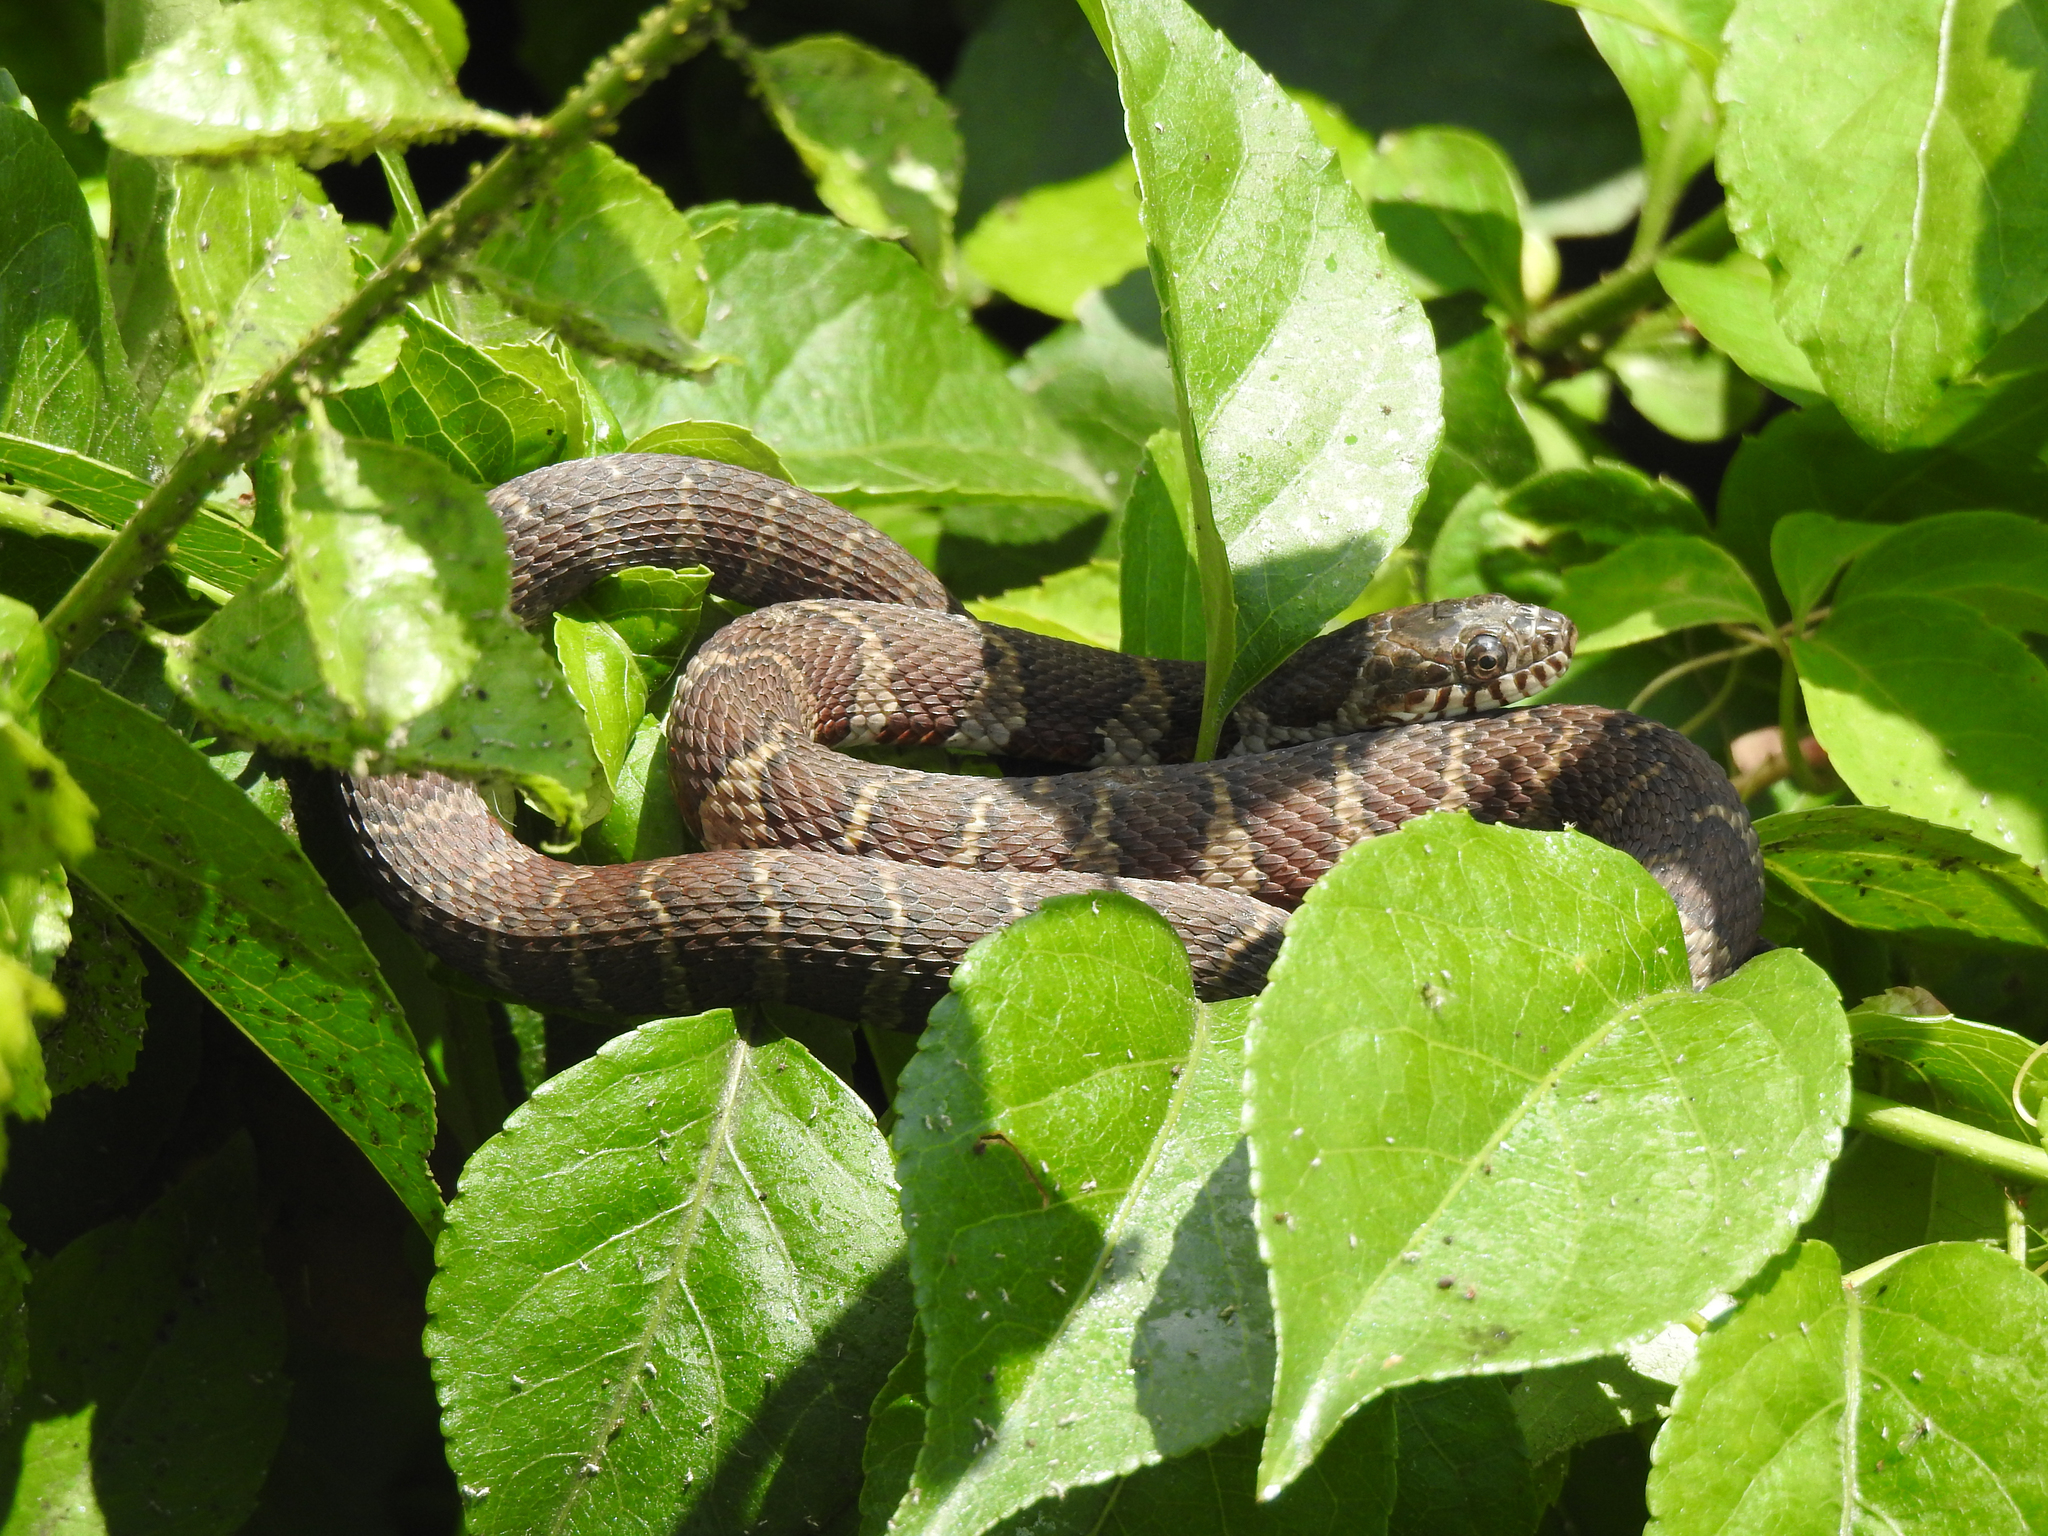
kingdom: Animalia
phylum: Chordata
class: Squamata
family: Colubridae
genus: Nerodia
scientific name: Nerodia sipedon
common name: Northern water snake
